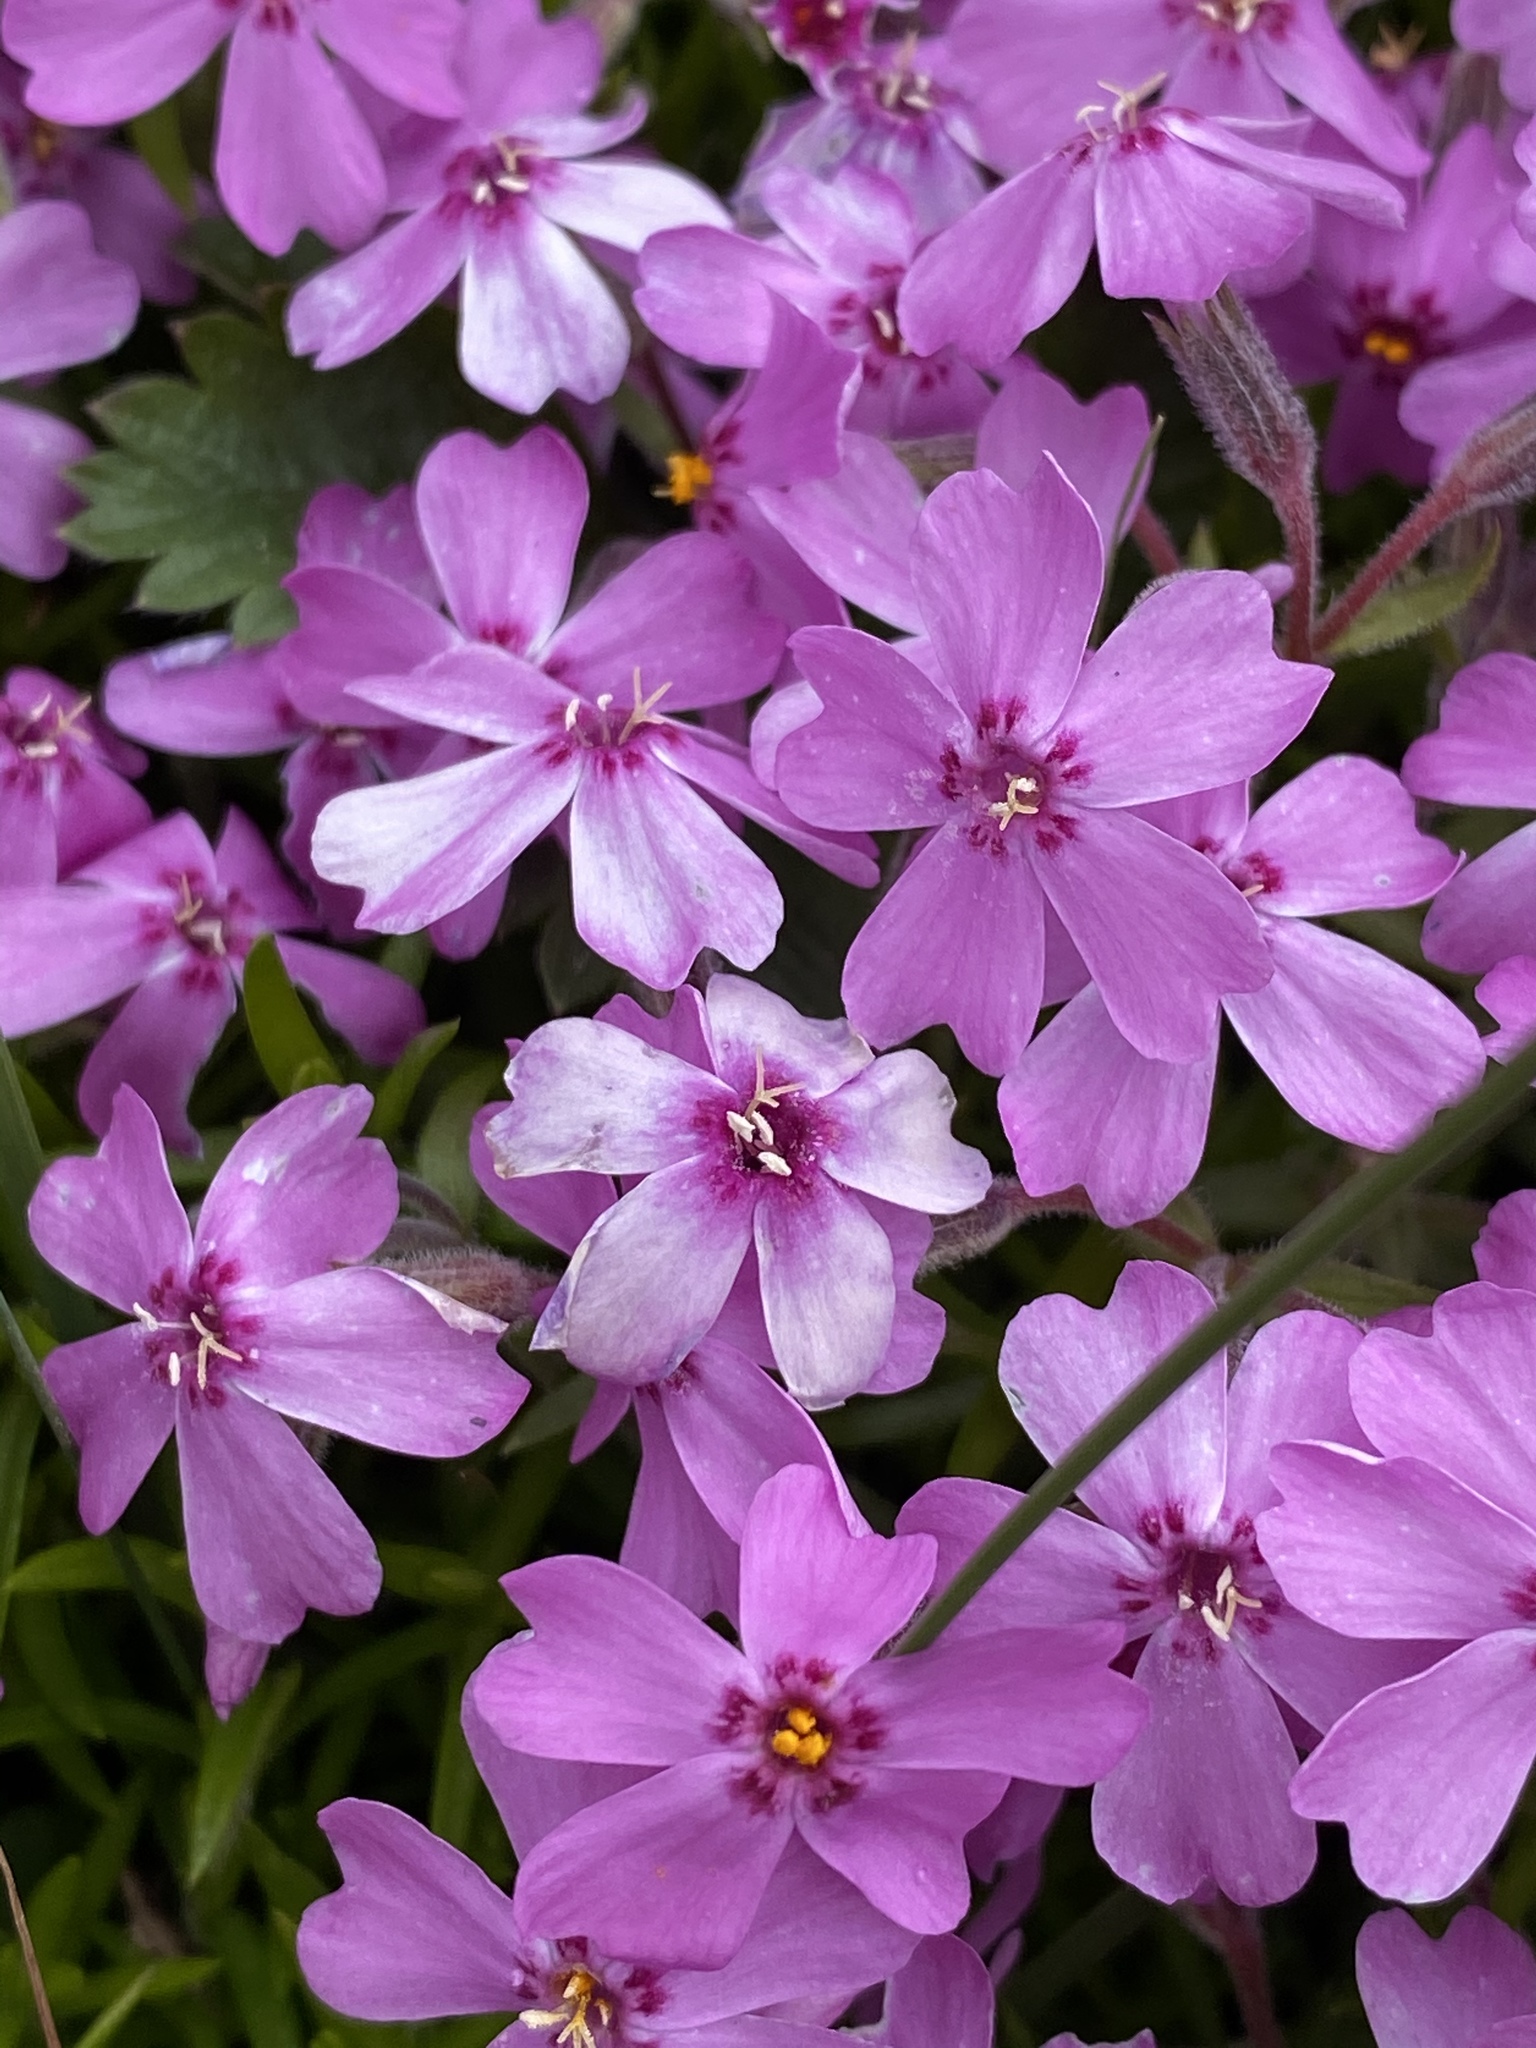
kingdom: Plantae
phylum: Tracheophyta
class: Magnoliopsida
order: Ericales
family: Polemoniaceae
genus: Phlox
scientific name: Phlox subulata
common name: Moss phlox
